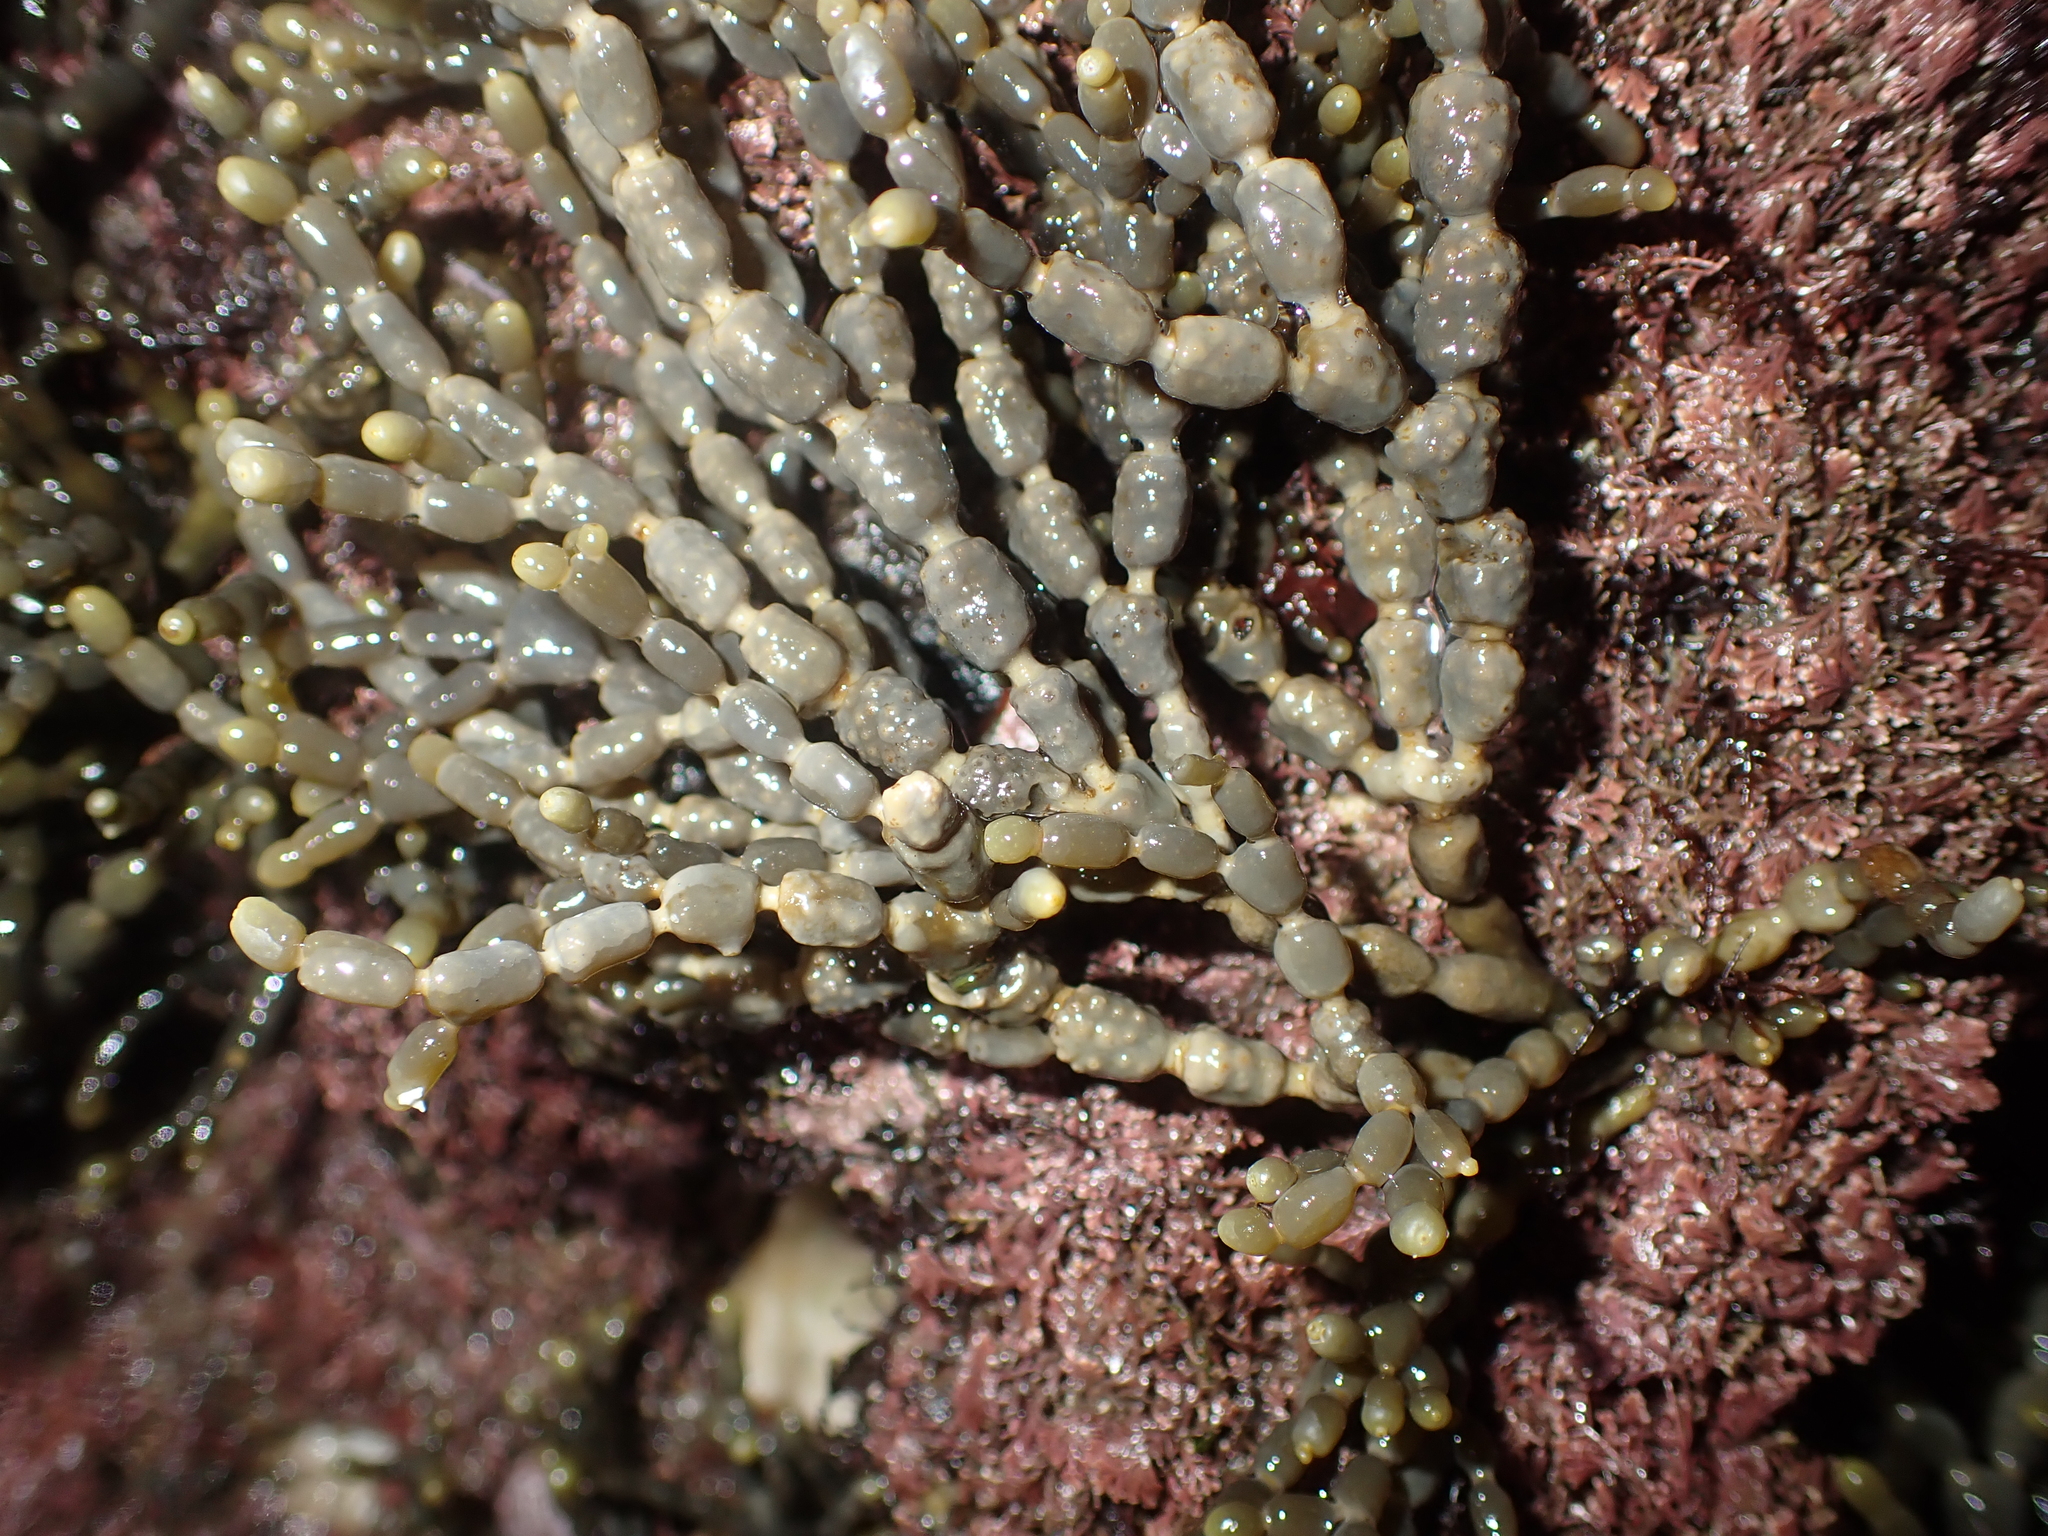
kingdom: Chromista
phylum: Ochrophyta
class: Phaeophyceae
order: Fucales
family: Hormosiraceae
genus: Hormosira
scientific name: Hormosira banksii
